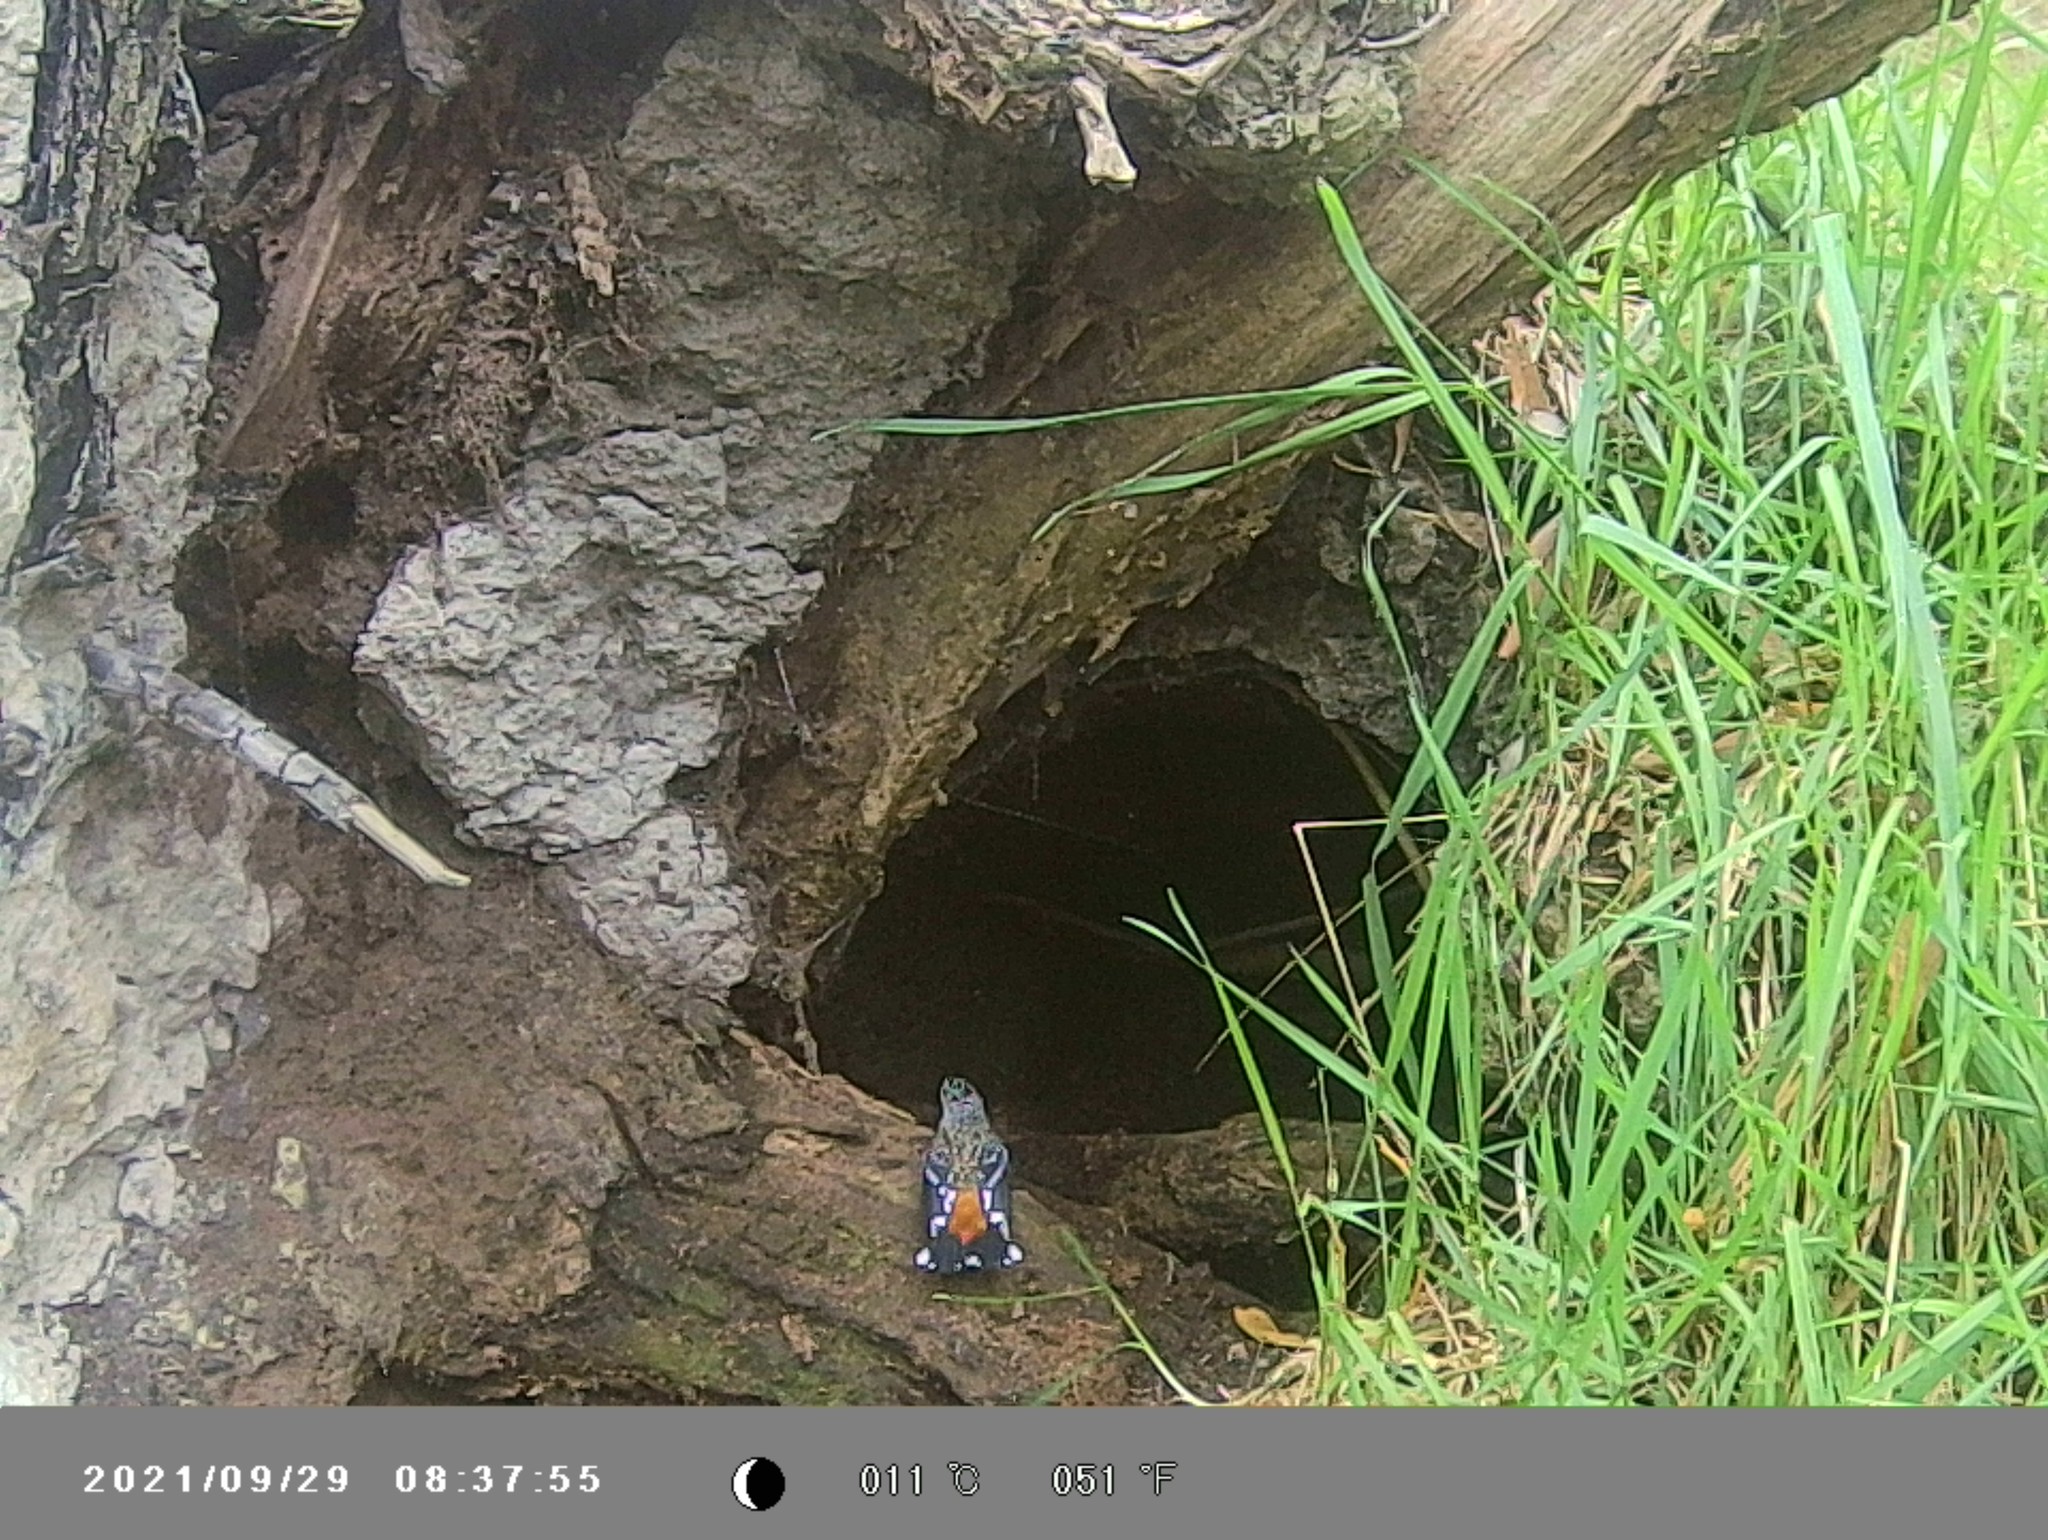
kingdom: Animalia
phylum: Chordata
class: Aves
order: Passeriformes
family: Pardalotidae
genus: Pardalotus
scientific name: Pardalotus punctatus
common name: Spotted pardalote
